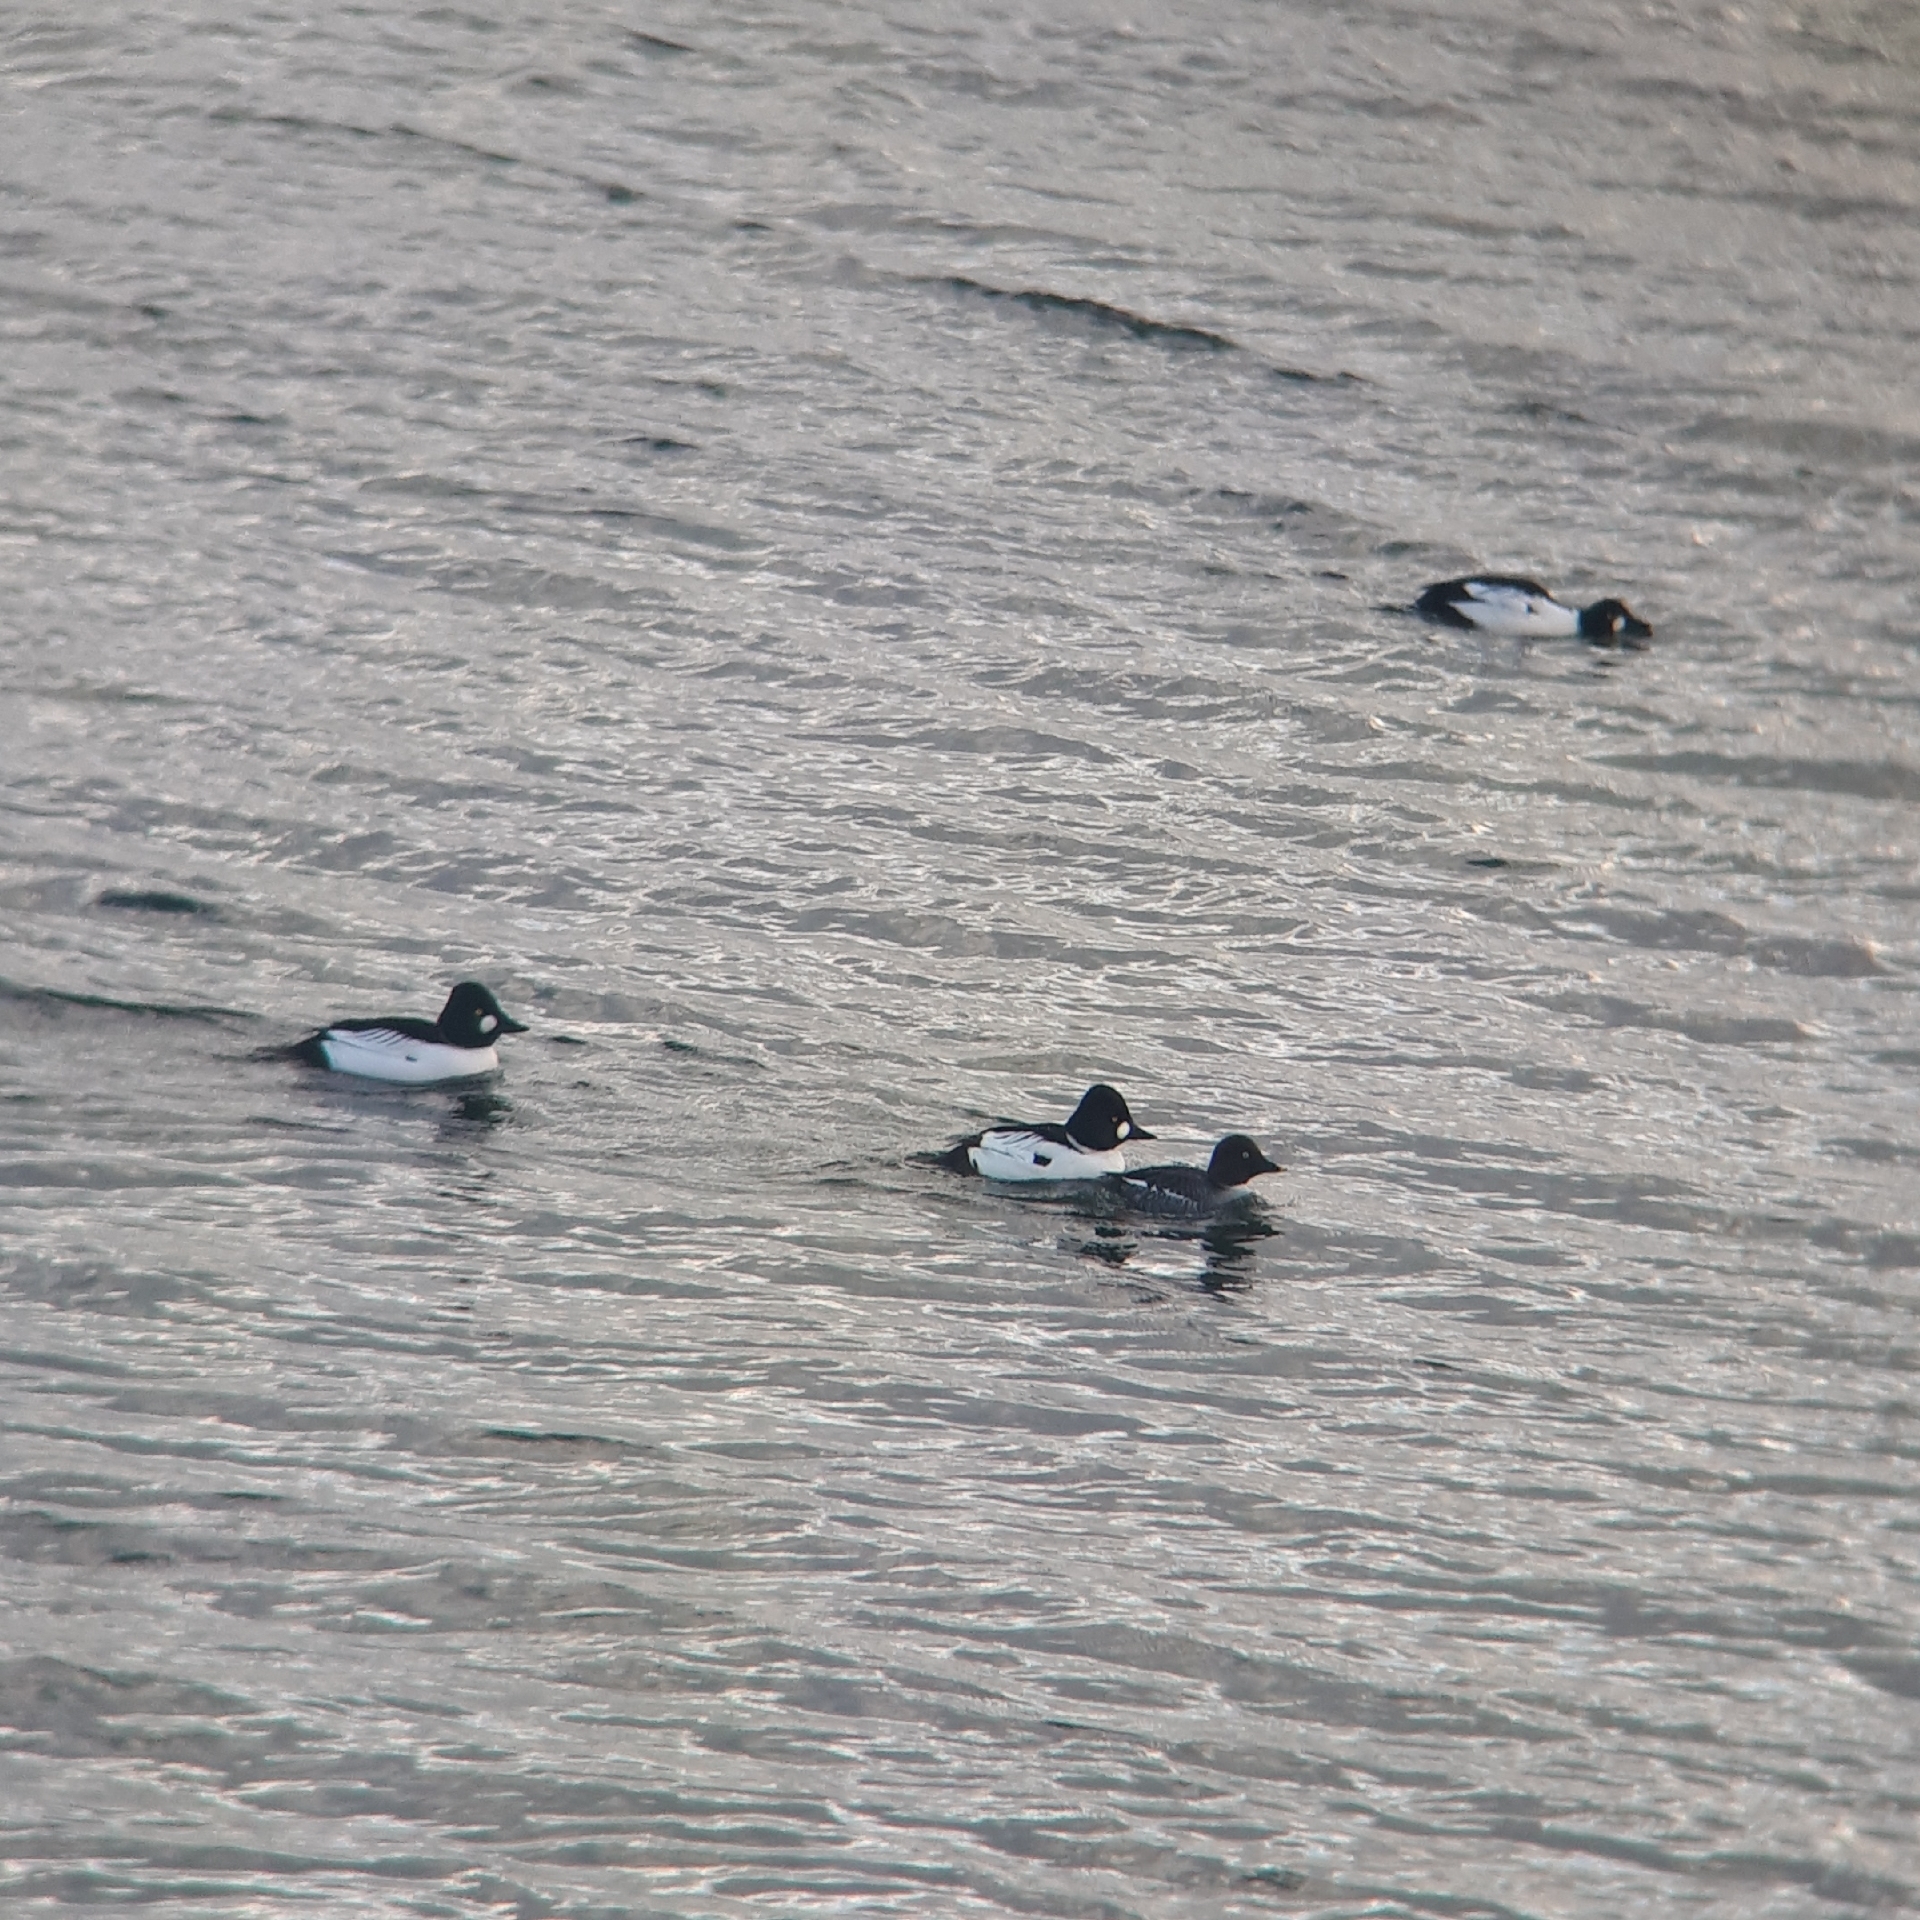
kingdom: Animalia
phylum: Chordata
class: Aves
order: Anseriformes
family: Anatidae
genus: Bucephala
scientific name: Bucephala clangula
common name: Common goldeneye
